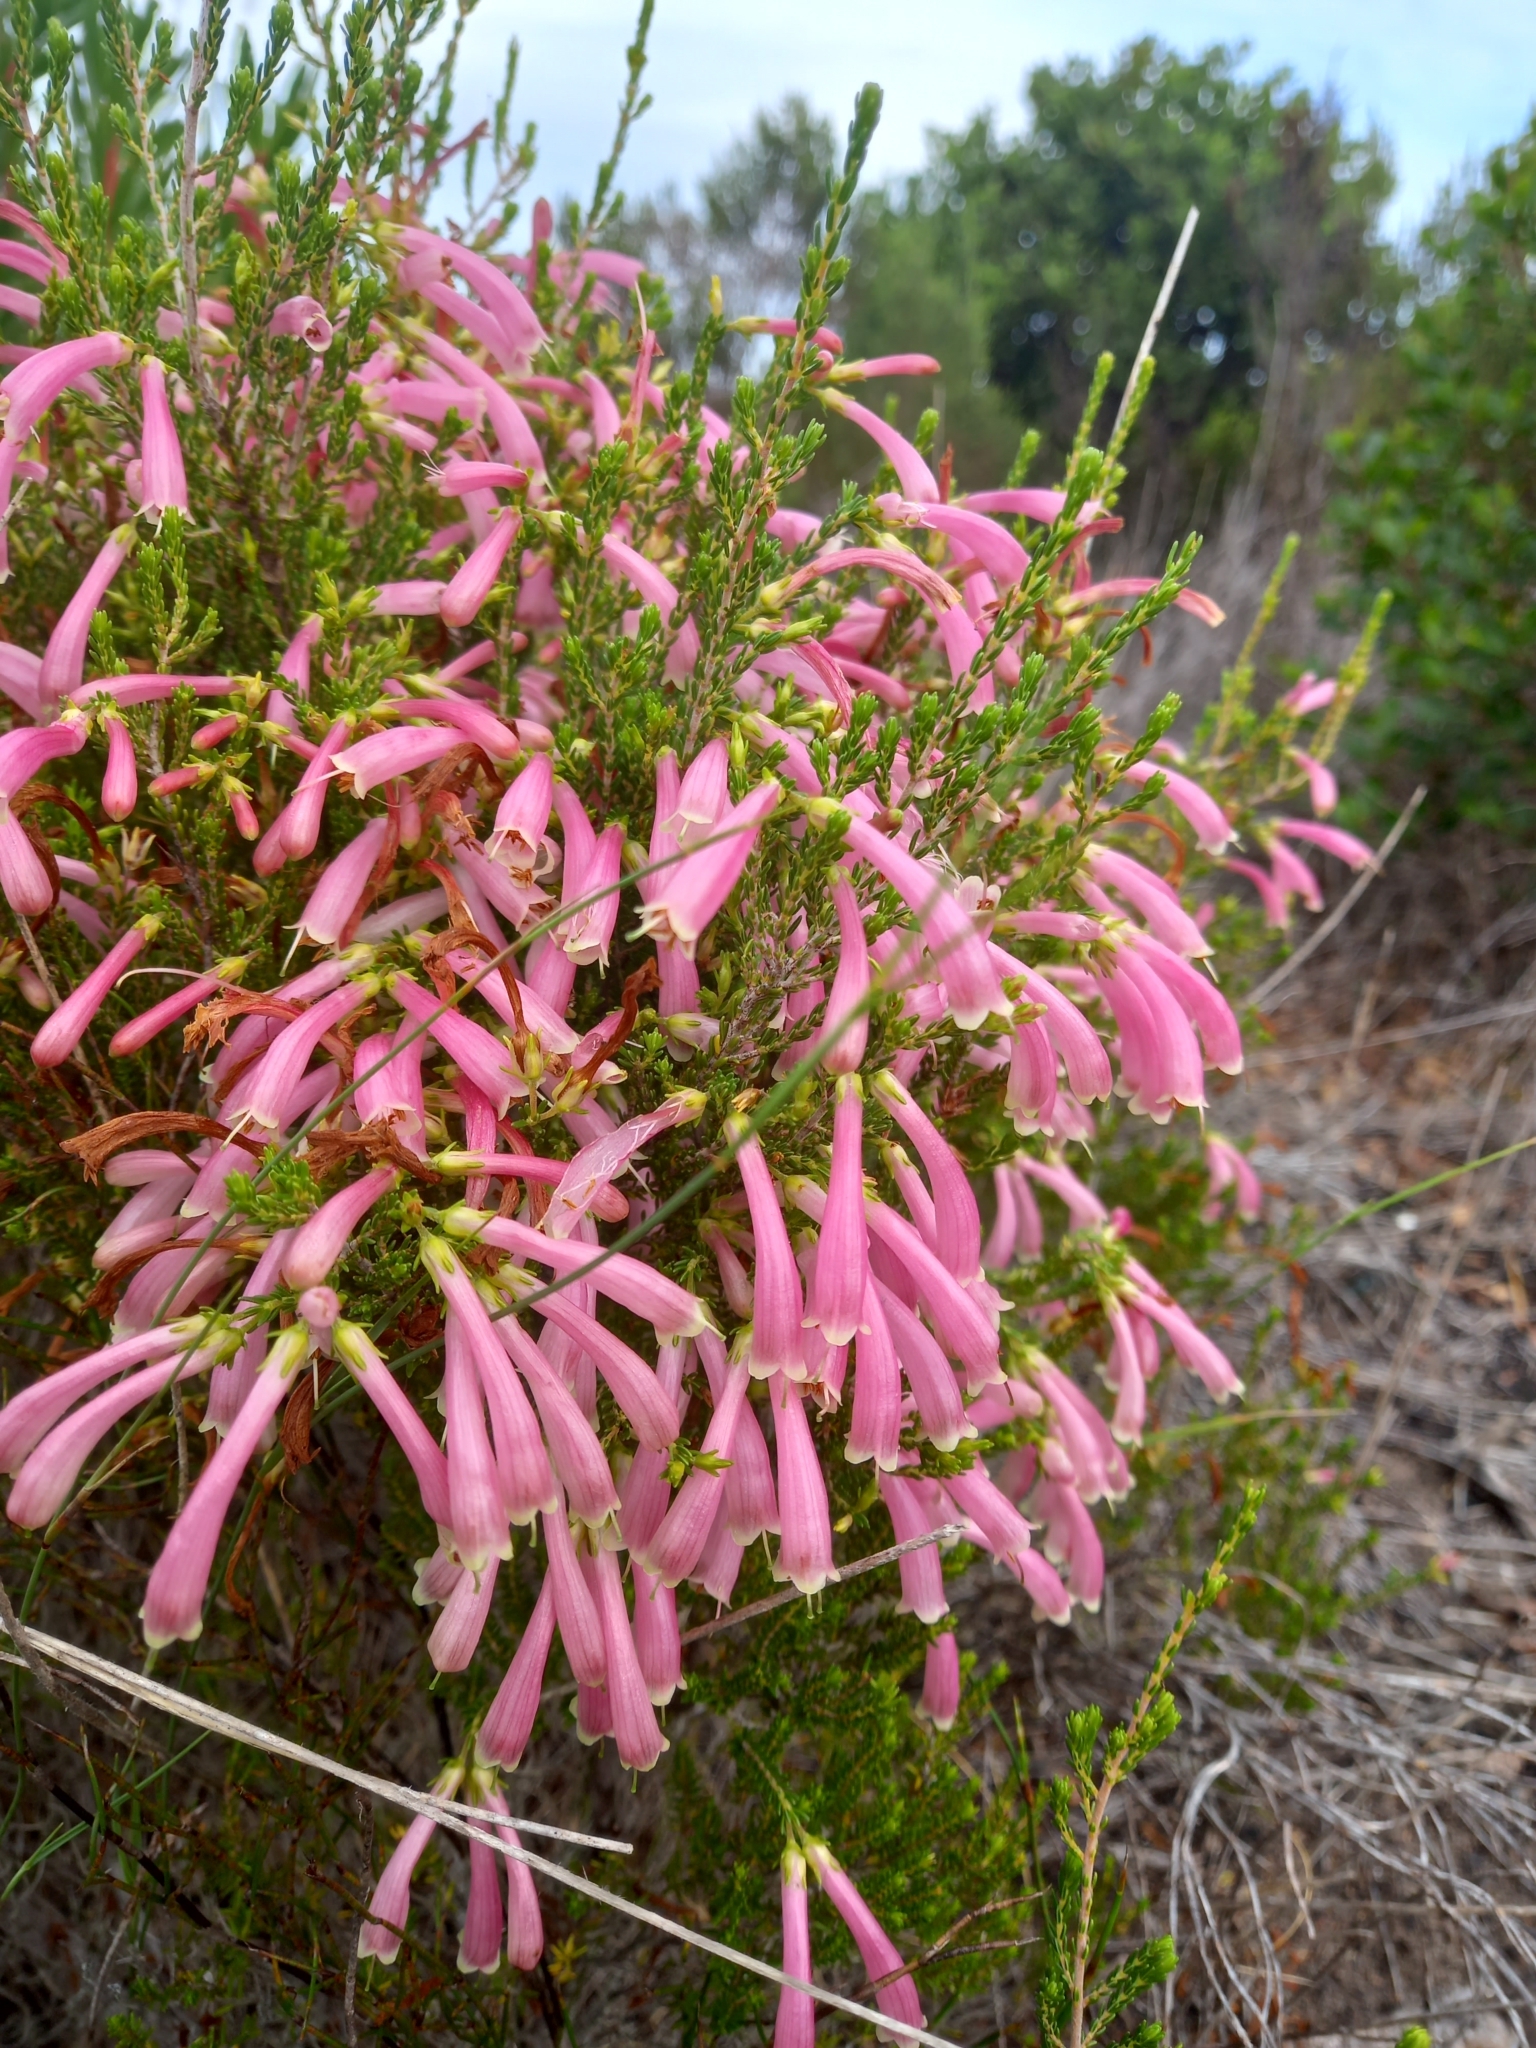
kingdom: Plantae
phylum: Tracheophyta
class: Magnoliopsida
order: Ericales
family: Ericaceae
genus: Erica
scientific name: Erica discolor
